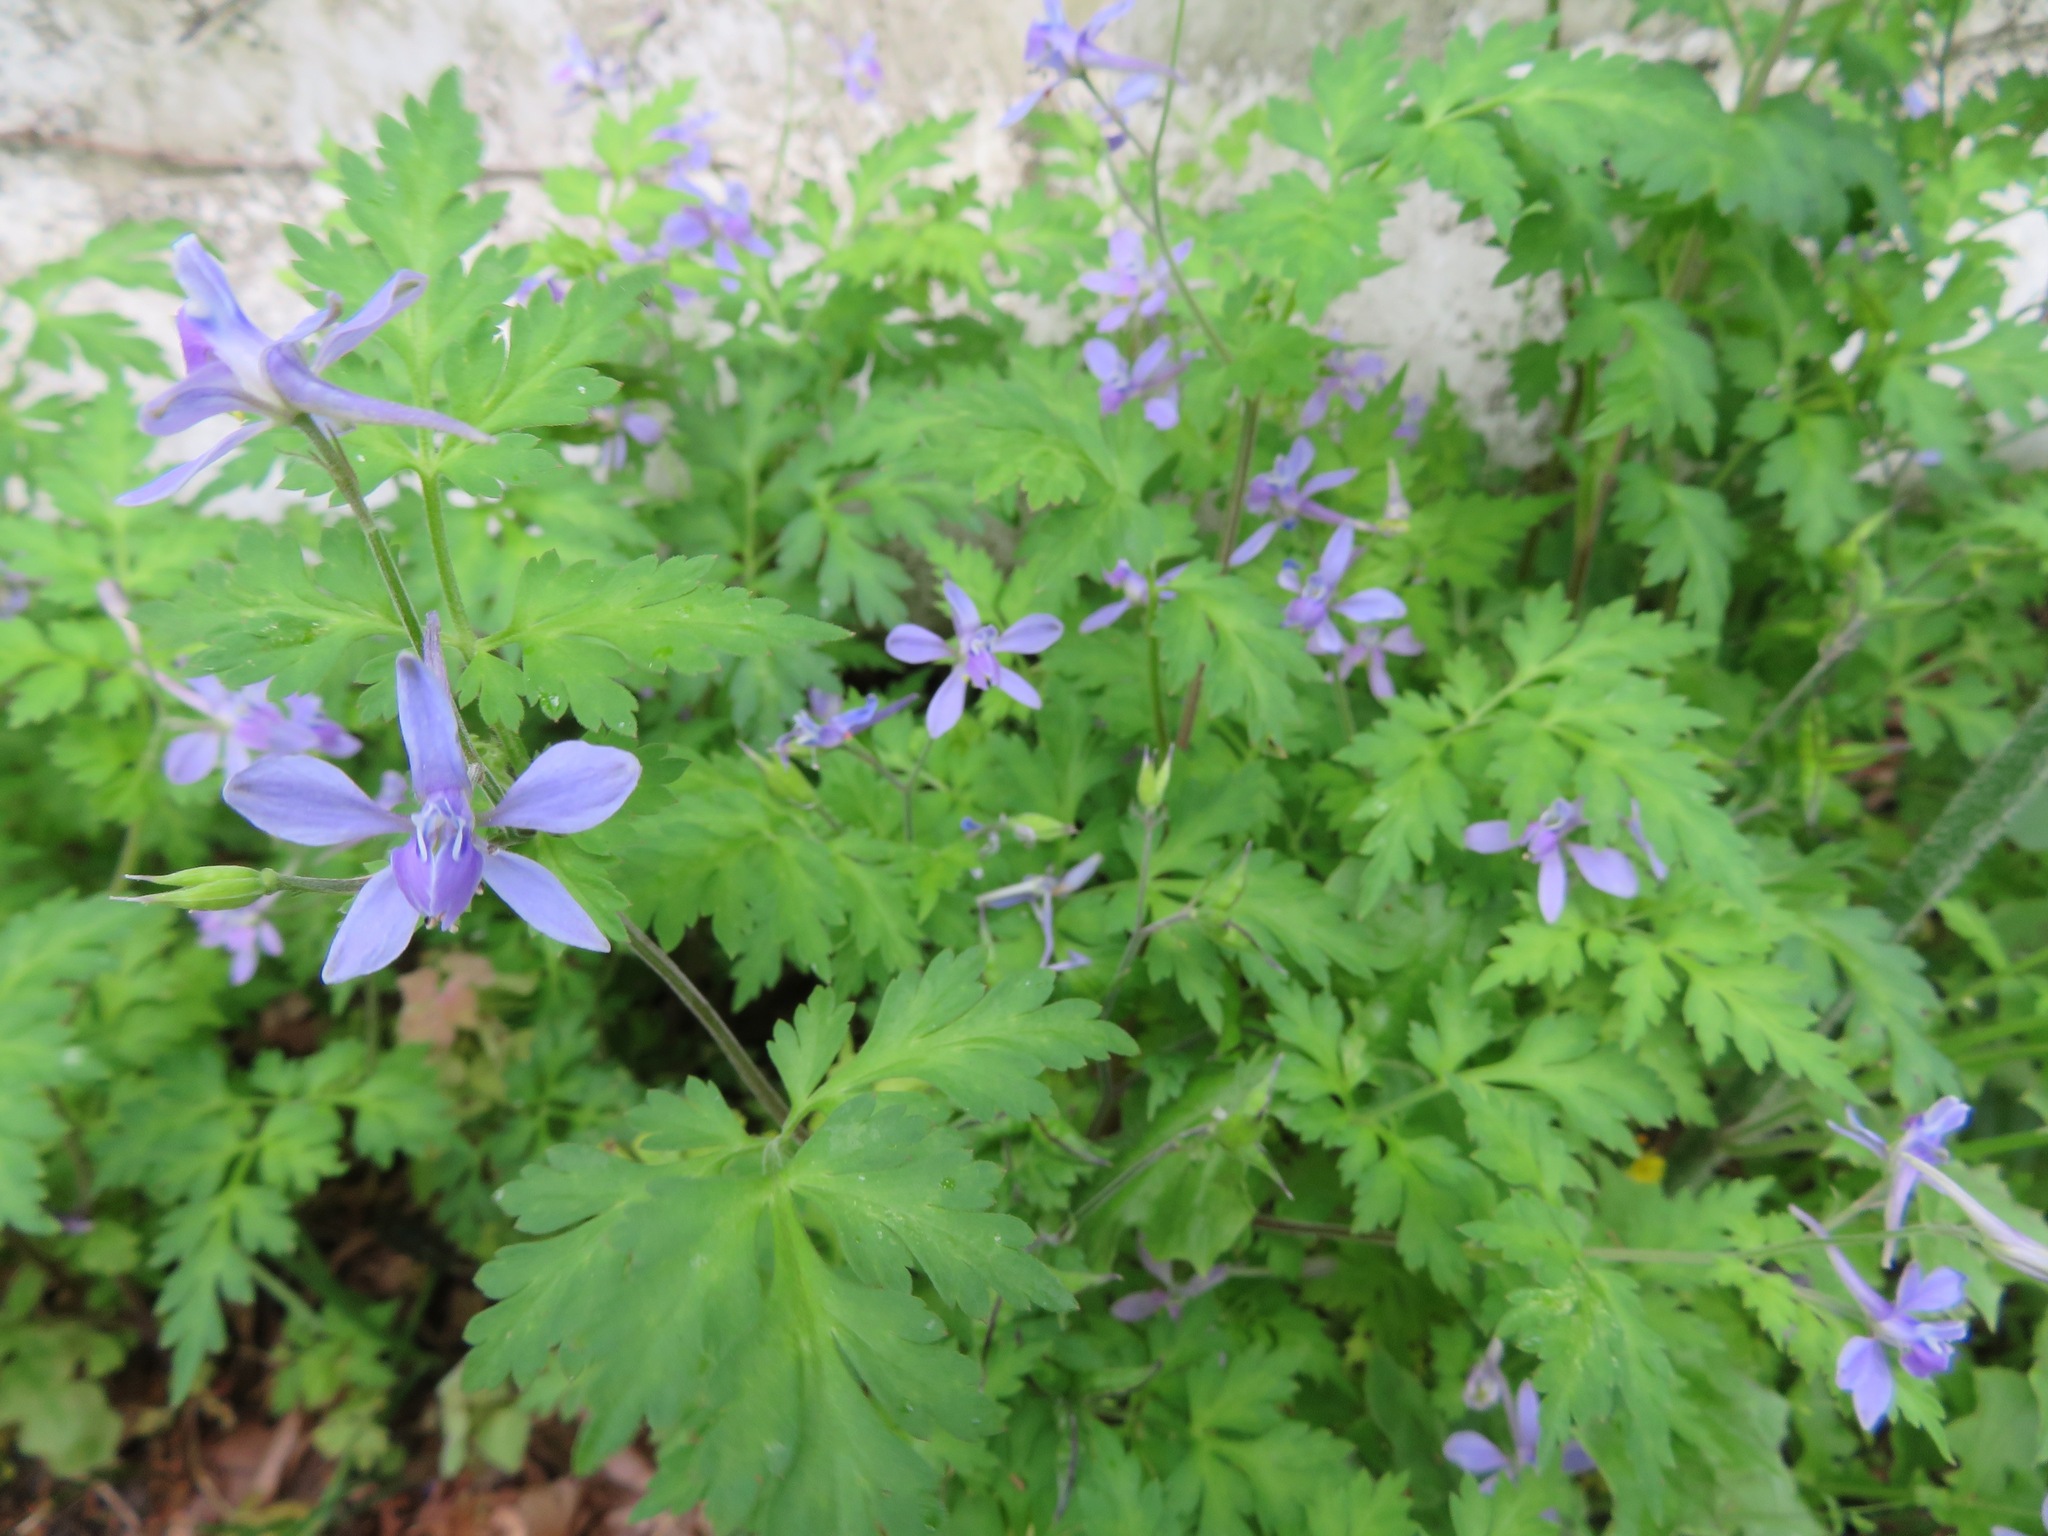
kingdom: Plantae
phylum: Tracheophyta
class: Magnoliopsida
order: Ranunculales
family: Ranunculaceae
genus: Delphinium
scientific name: Delphinium anthriscifolium
